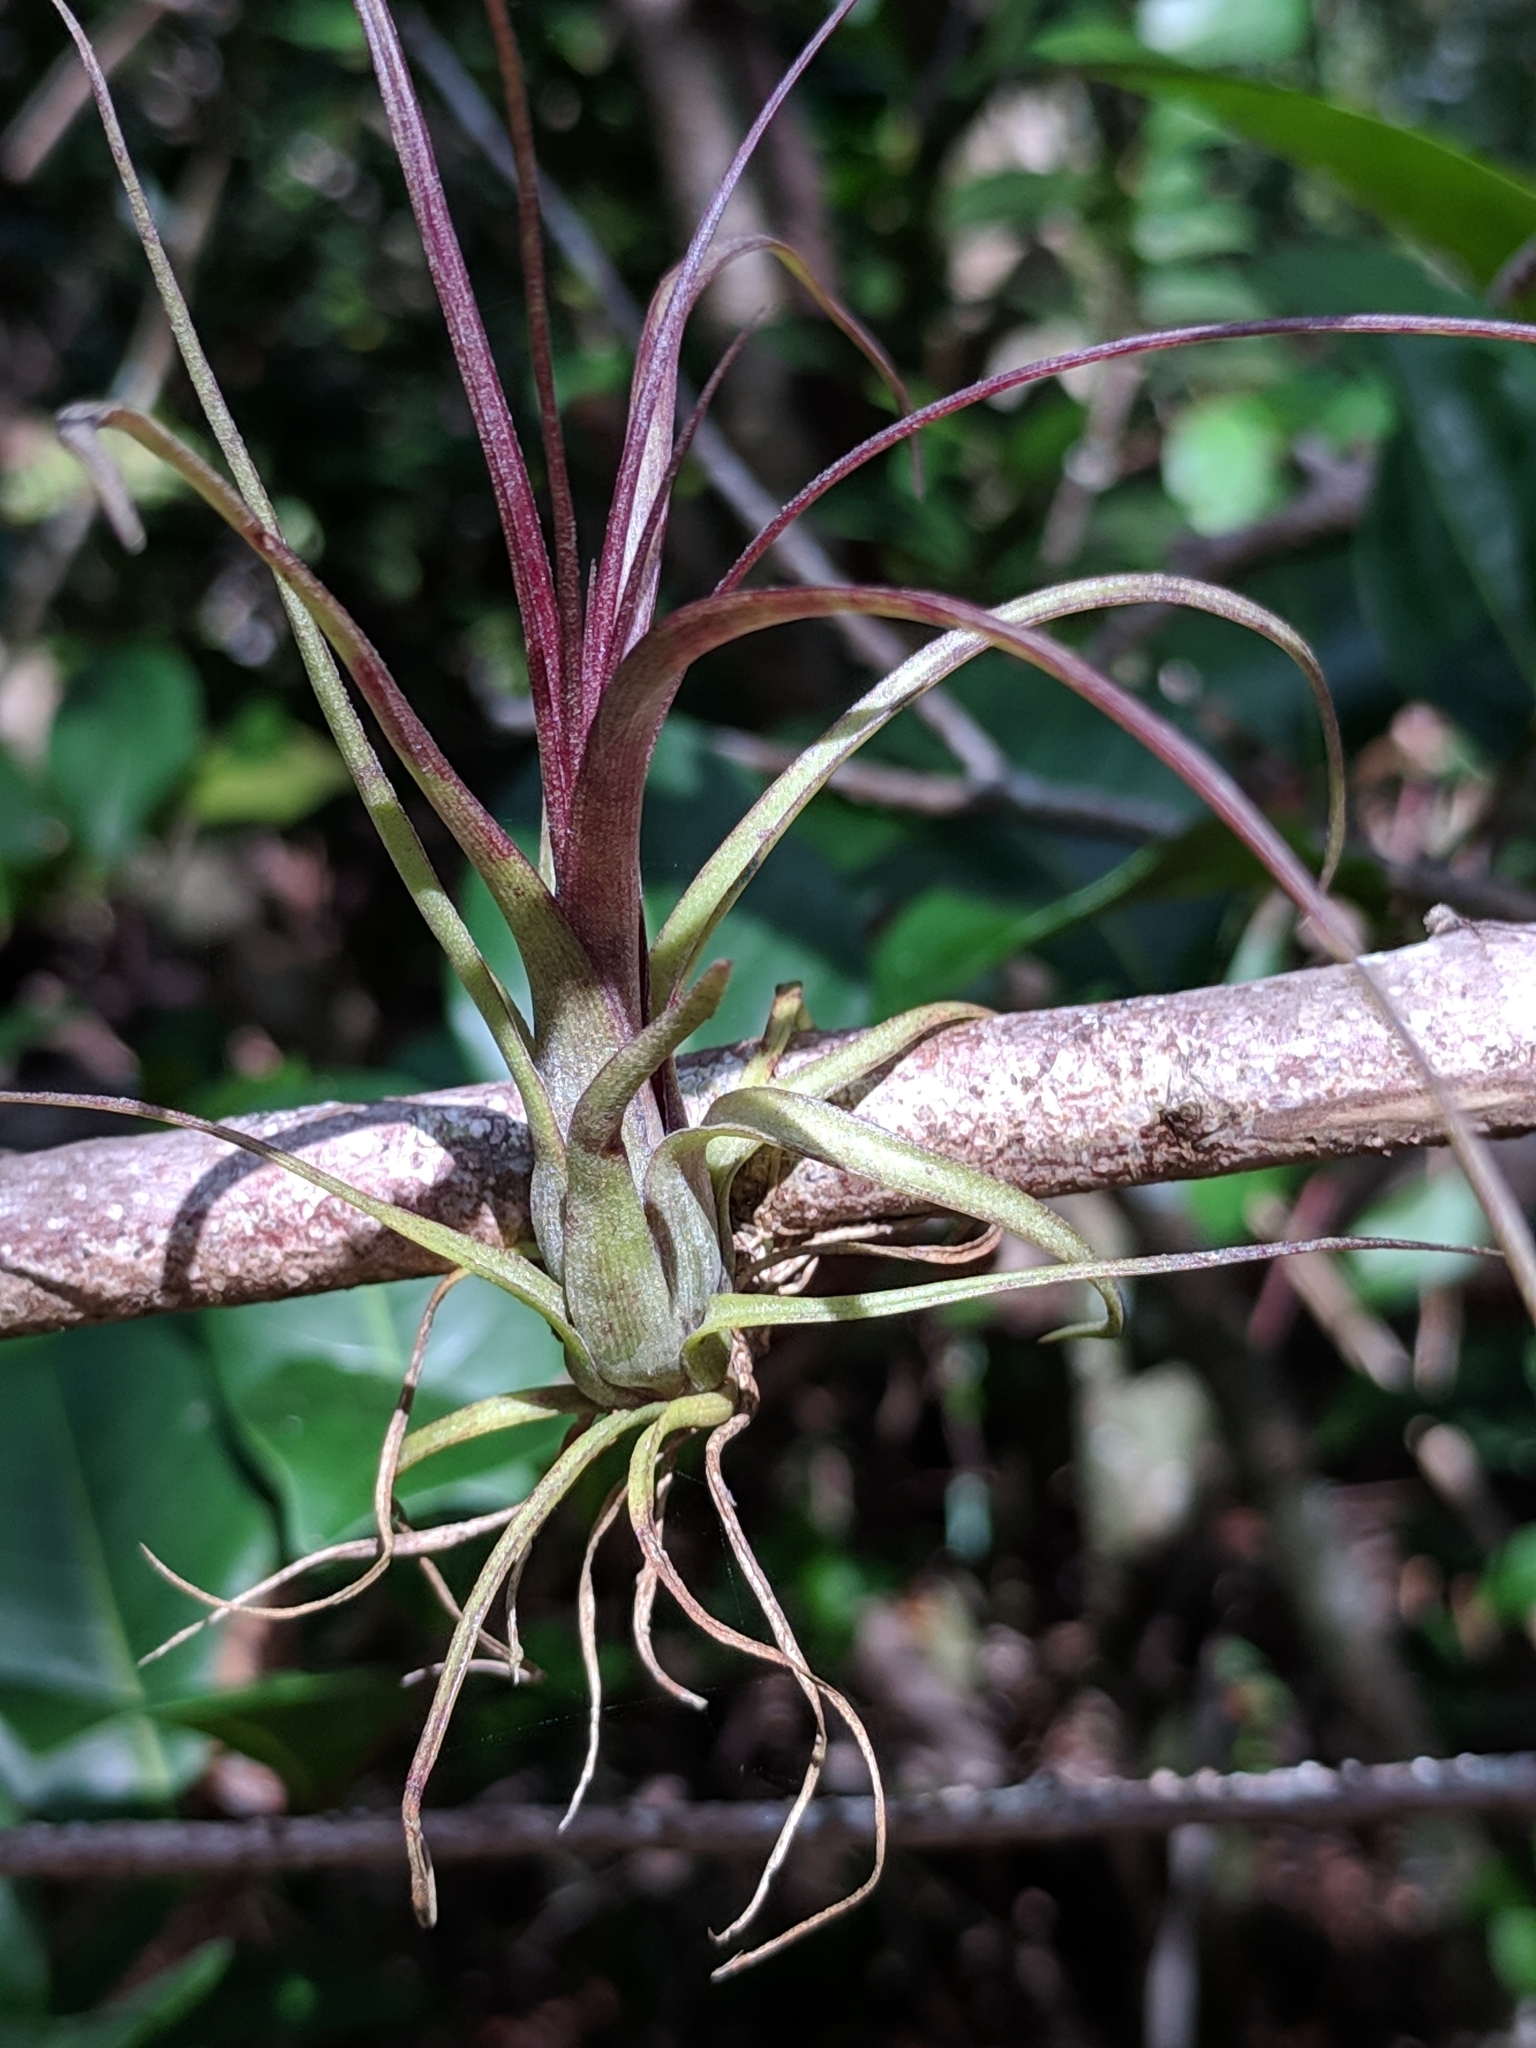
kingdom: Plantae
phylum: Tracheophyta
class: Liliopsida
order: Poales
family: Bromeliaceae
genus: Tillandsia
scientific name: Tillandsia balbisiana
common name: Northern needleleaf
